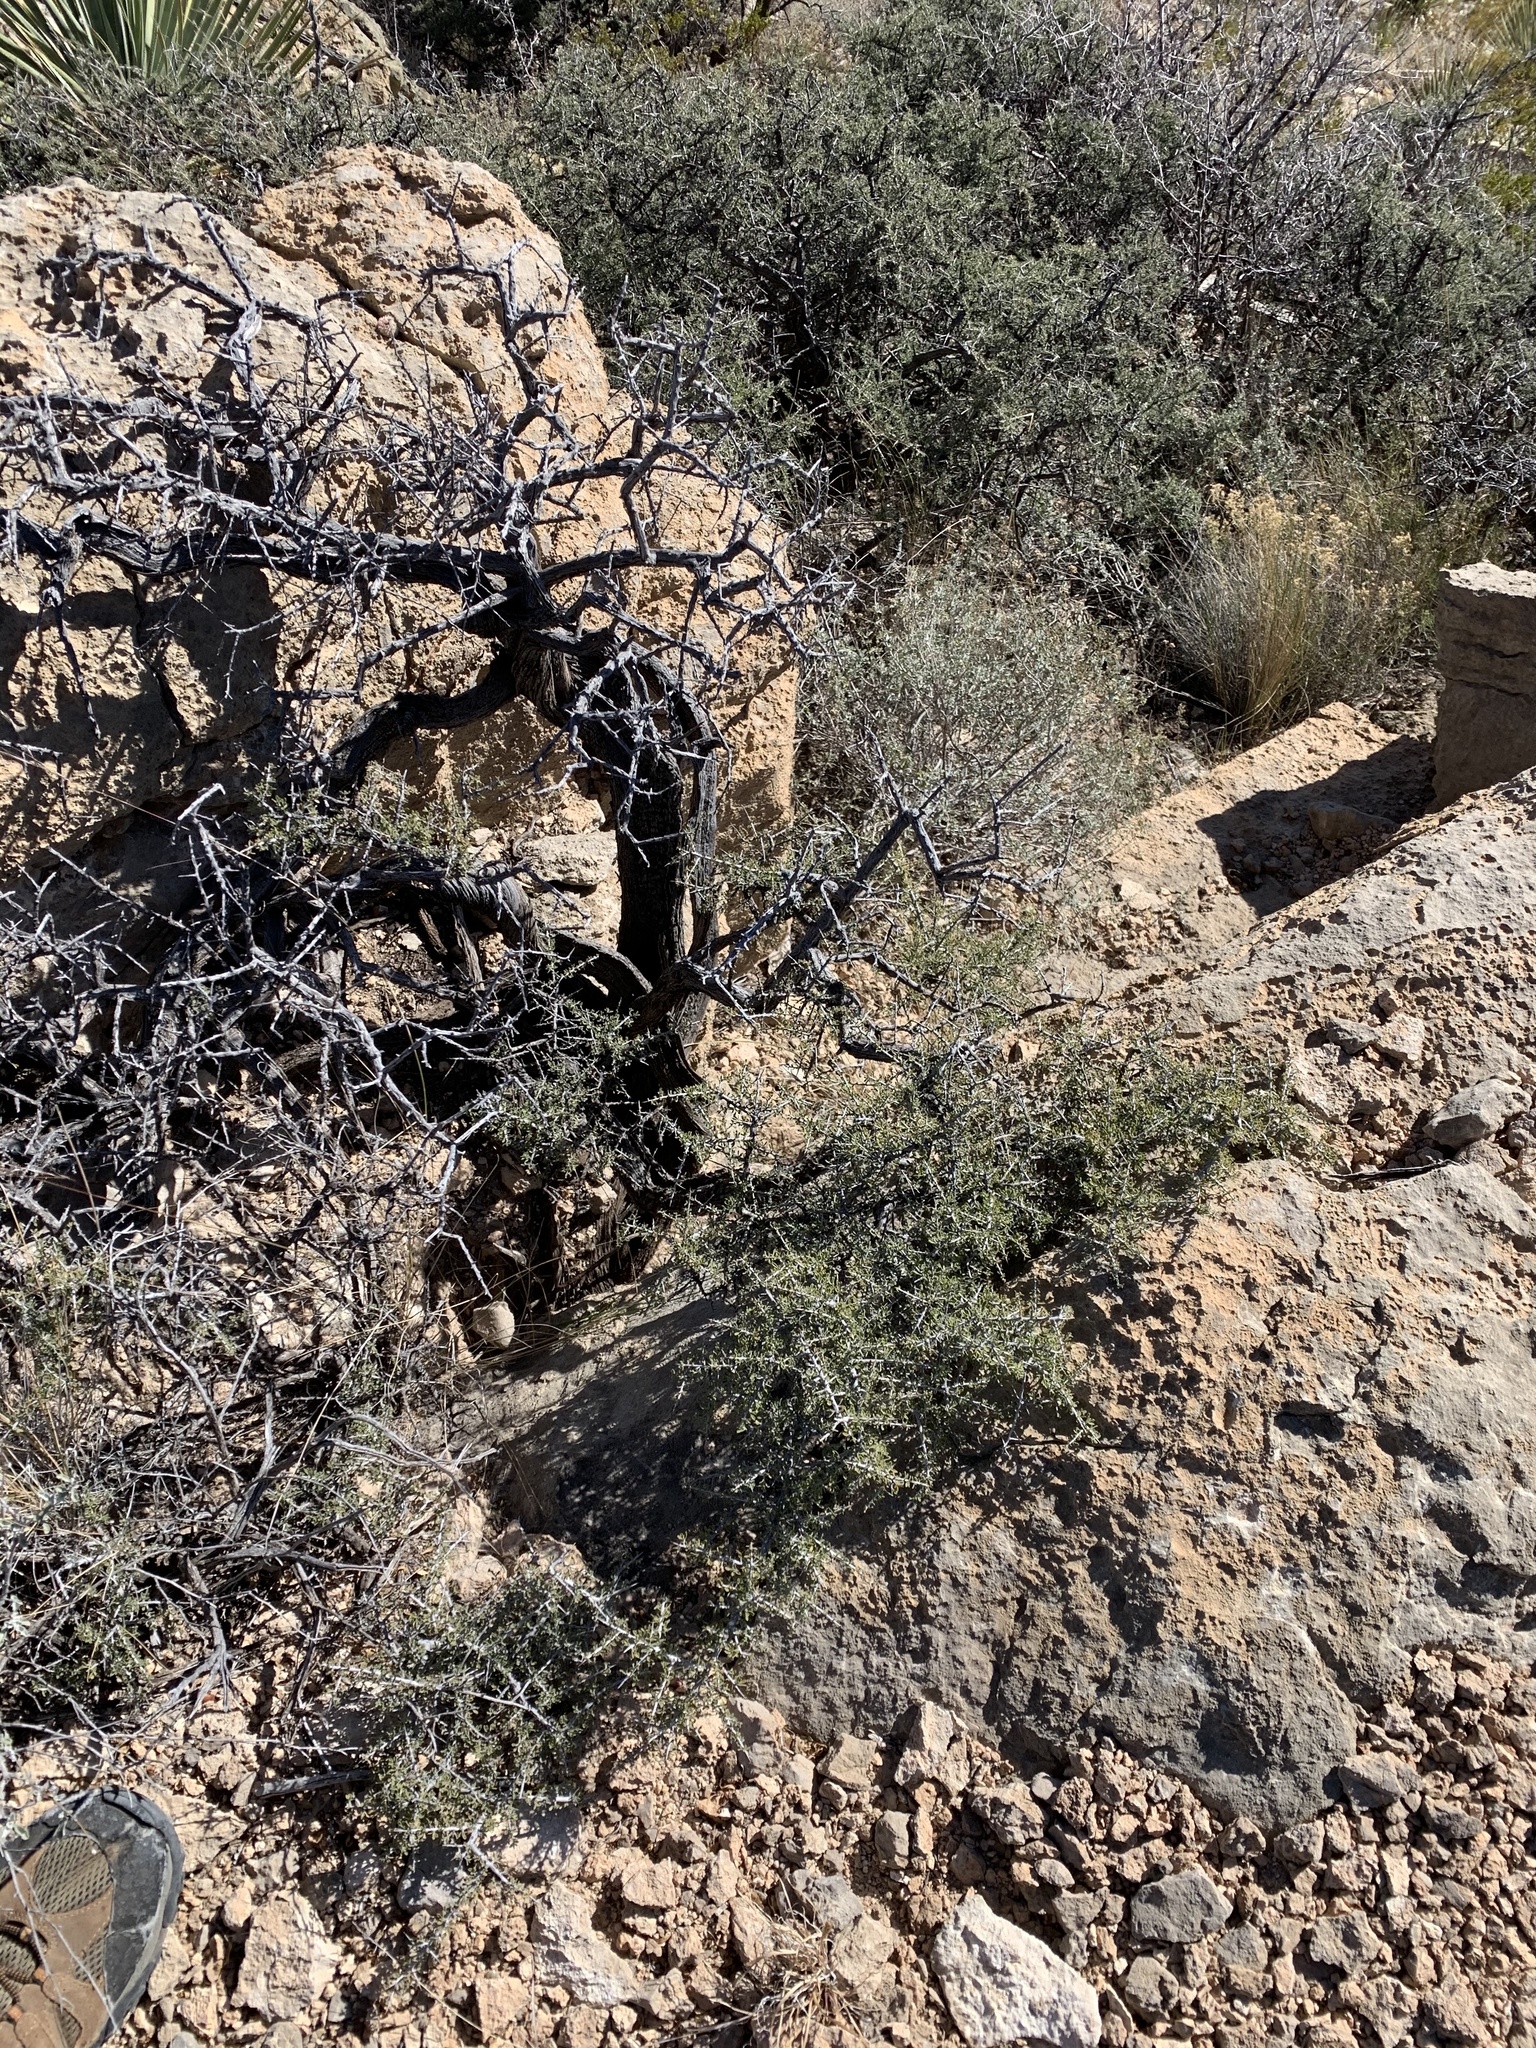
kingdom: Plantae
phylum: Tracheophyta
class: Magnoliopsida
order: Rosales
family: Rhamnaceae
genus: Condalia
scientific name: Condalia warnockii
